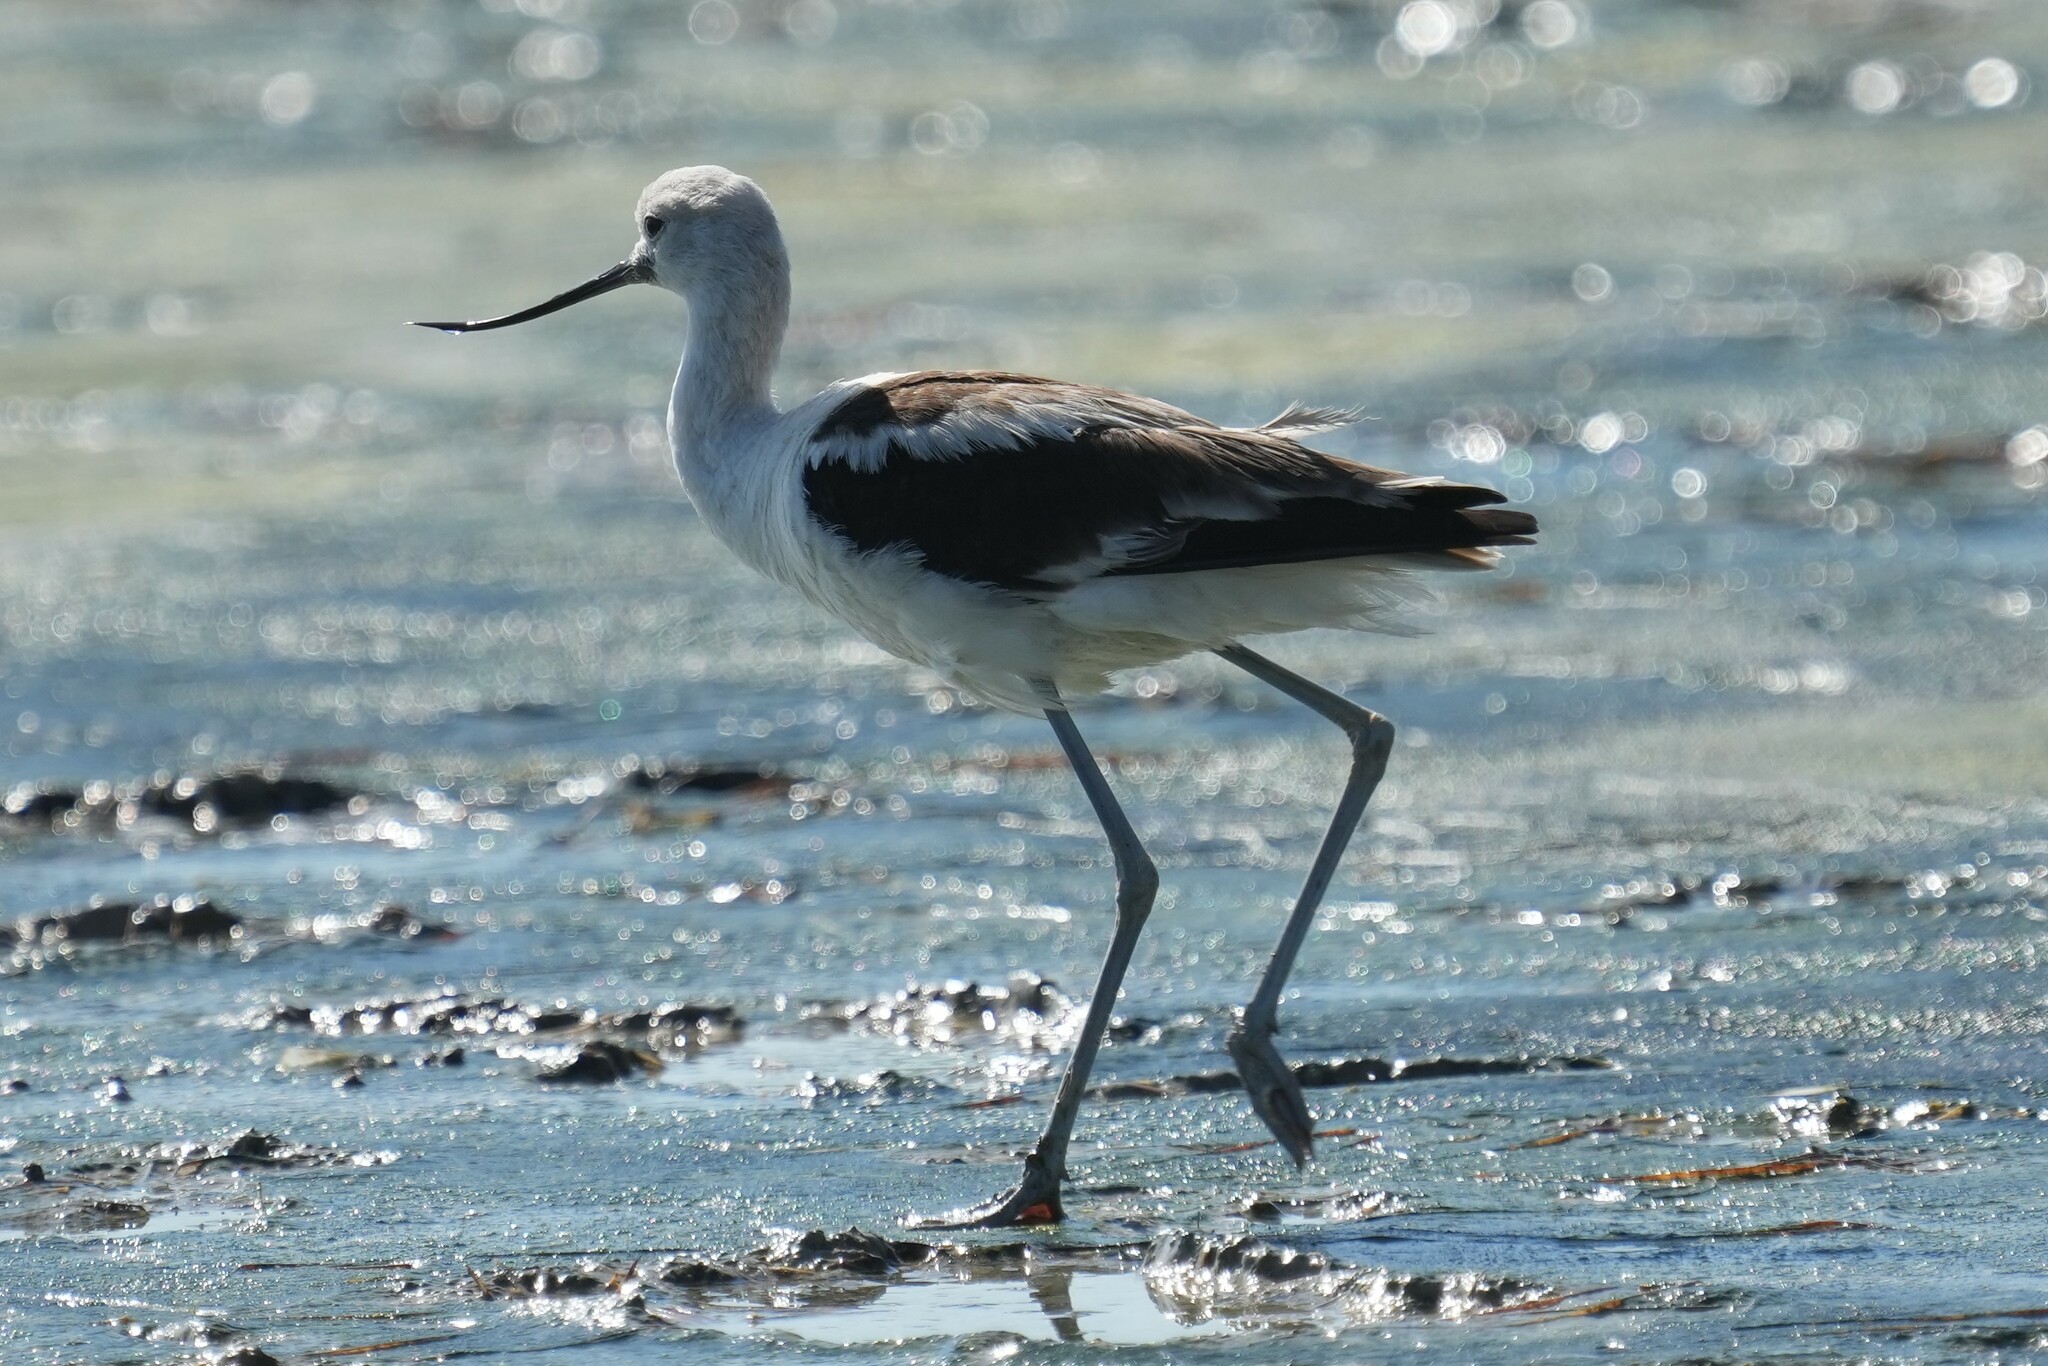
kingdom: Animalia
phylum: Chordata
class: Aves
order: Charadriiformes
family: Recurvirostridae
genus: Recurvirostra
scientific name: Recurvirostra americana
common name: American avocet
